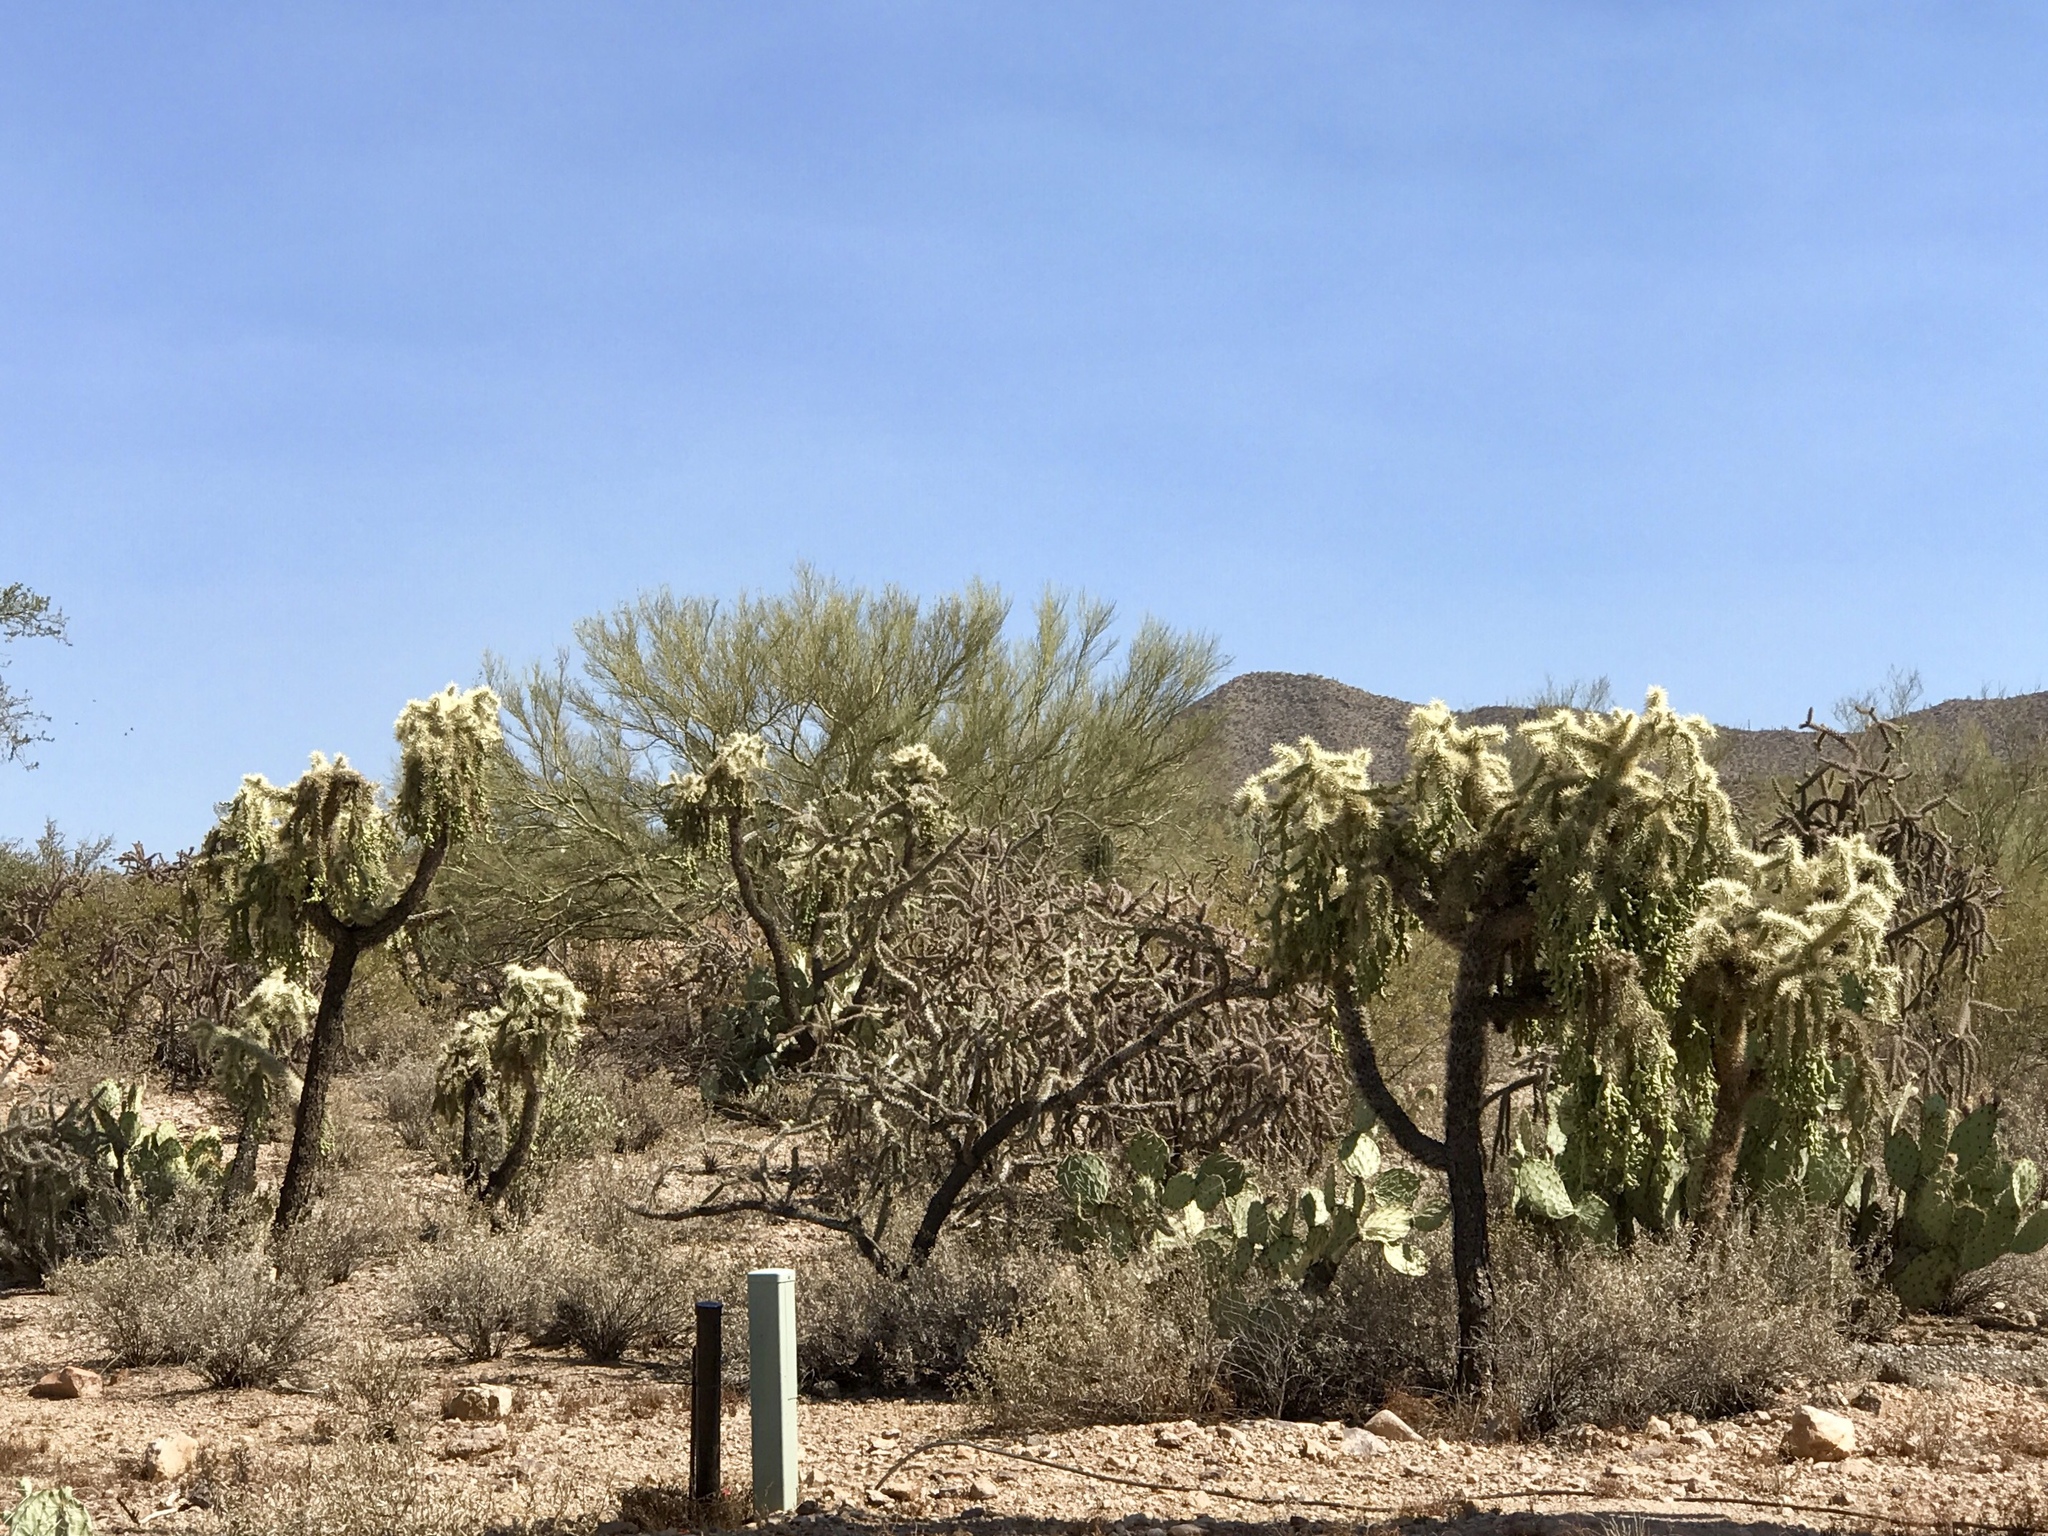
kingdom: Plantae
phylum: Tracheophyta
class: Magnoliopsida
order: Caryophyllales
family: Cactaceae
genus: Cylindropuntia
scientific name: Cylindropuntia fulgida
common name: Jumping cholla
